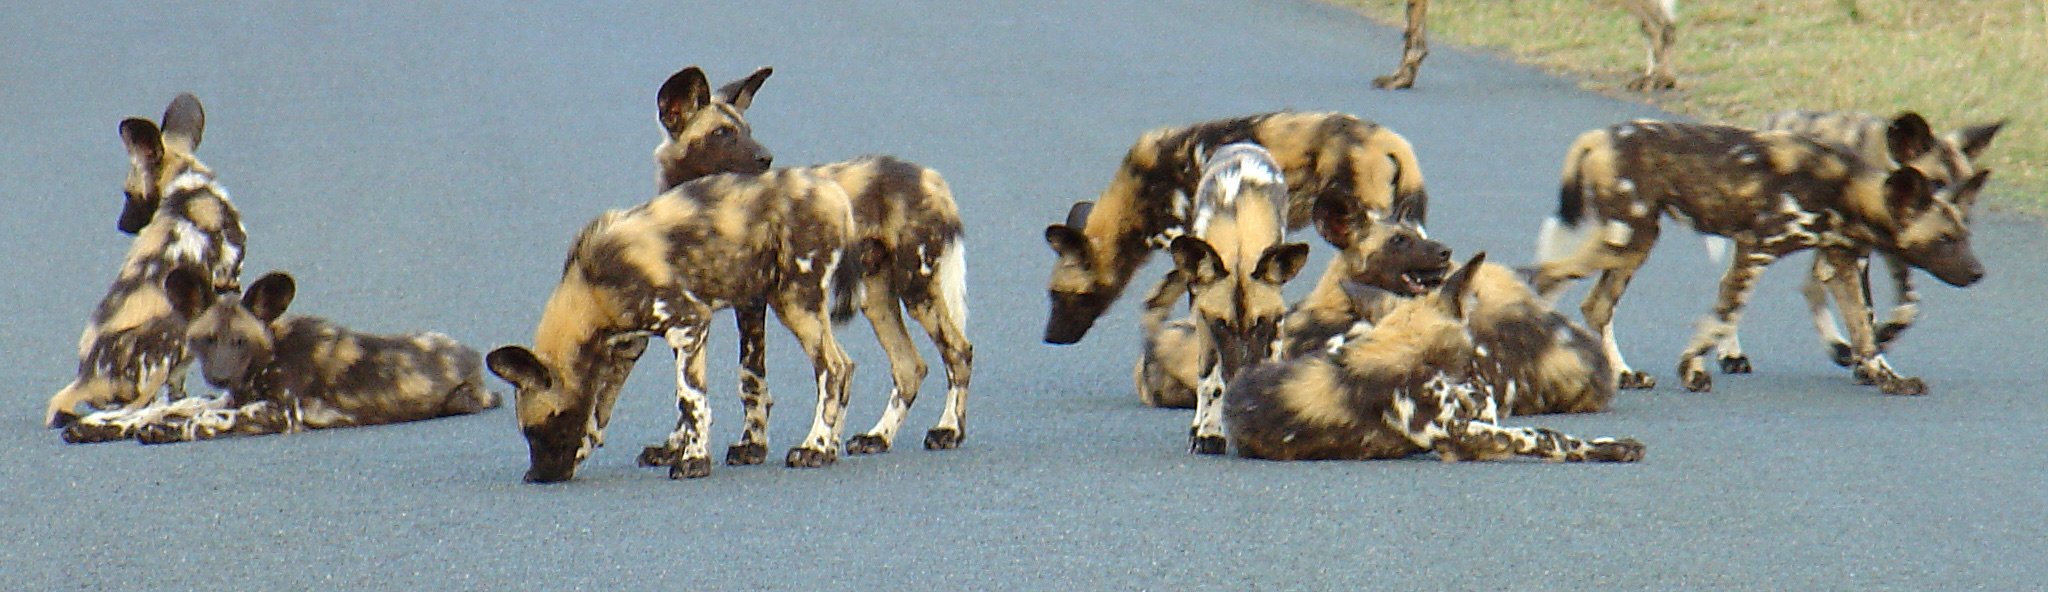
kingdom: Animalia
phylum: Chordata
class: Mammalia
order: Carnivora
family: Canidae
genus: Lycaon
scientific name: Lycaon pictus
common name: African wild dog
